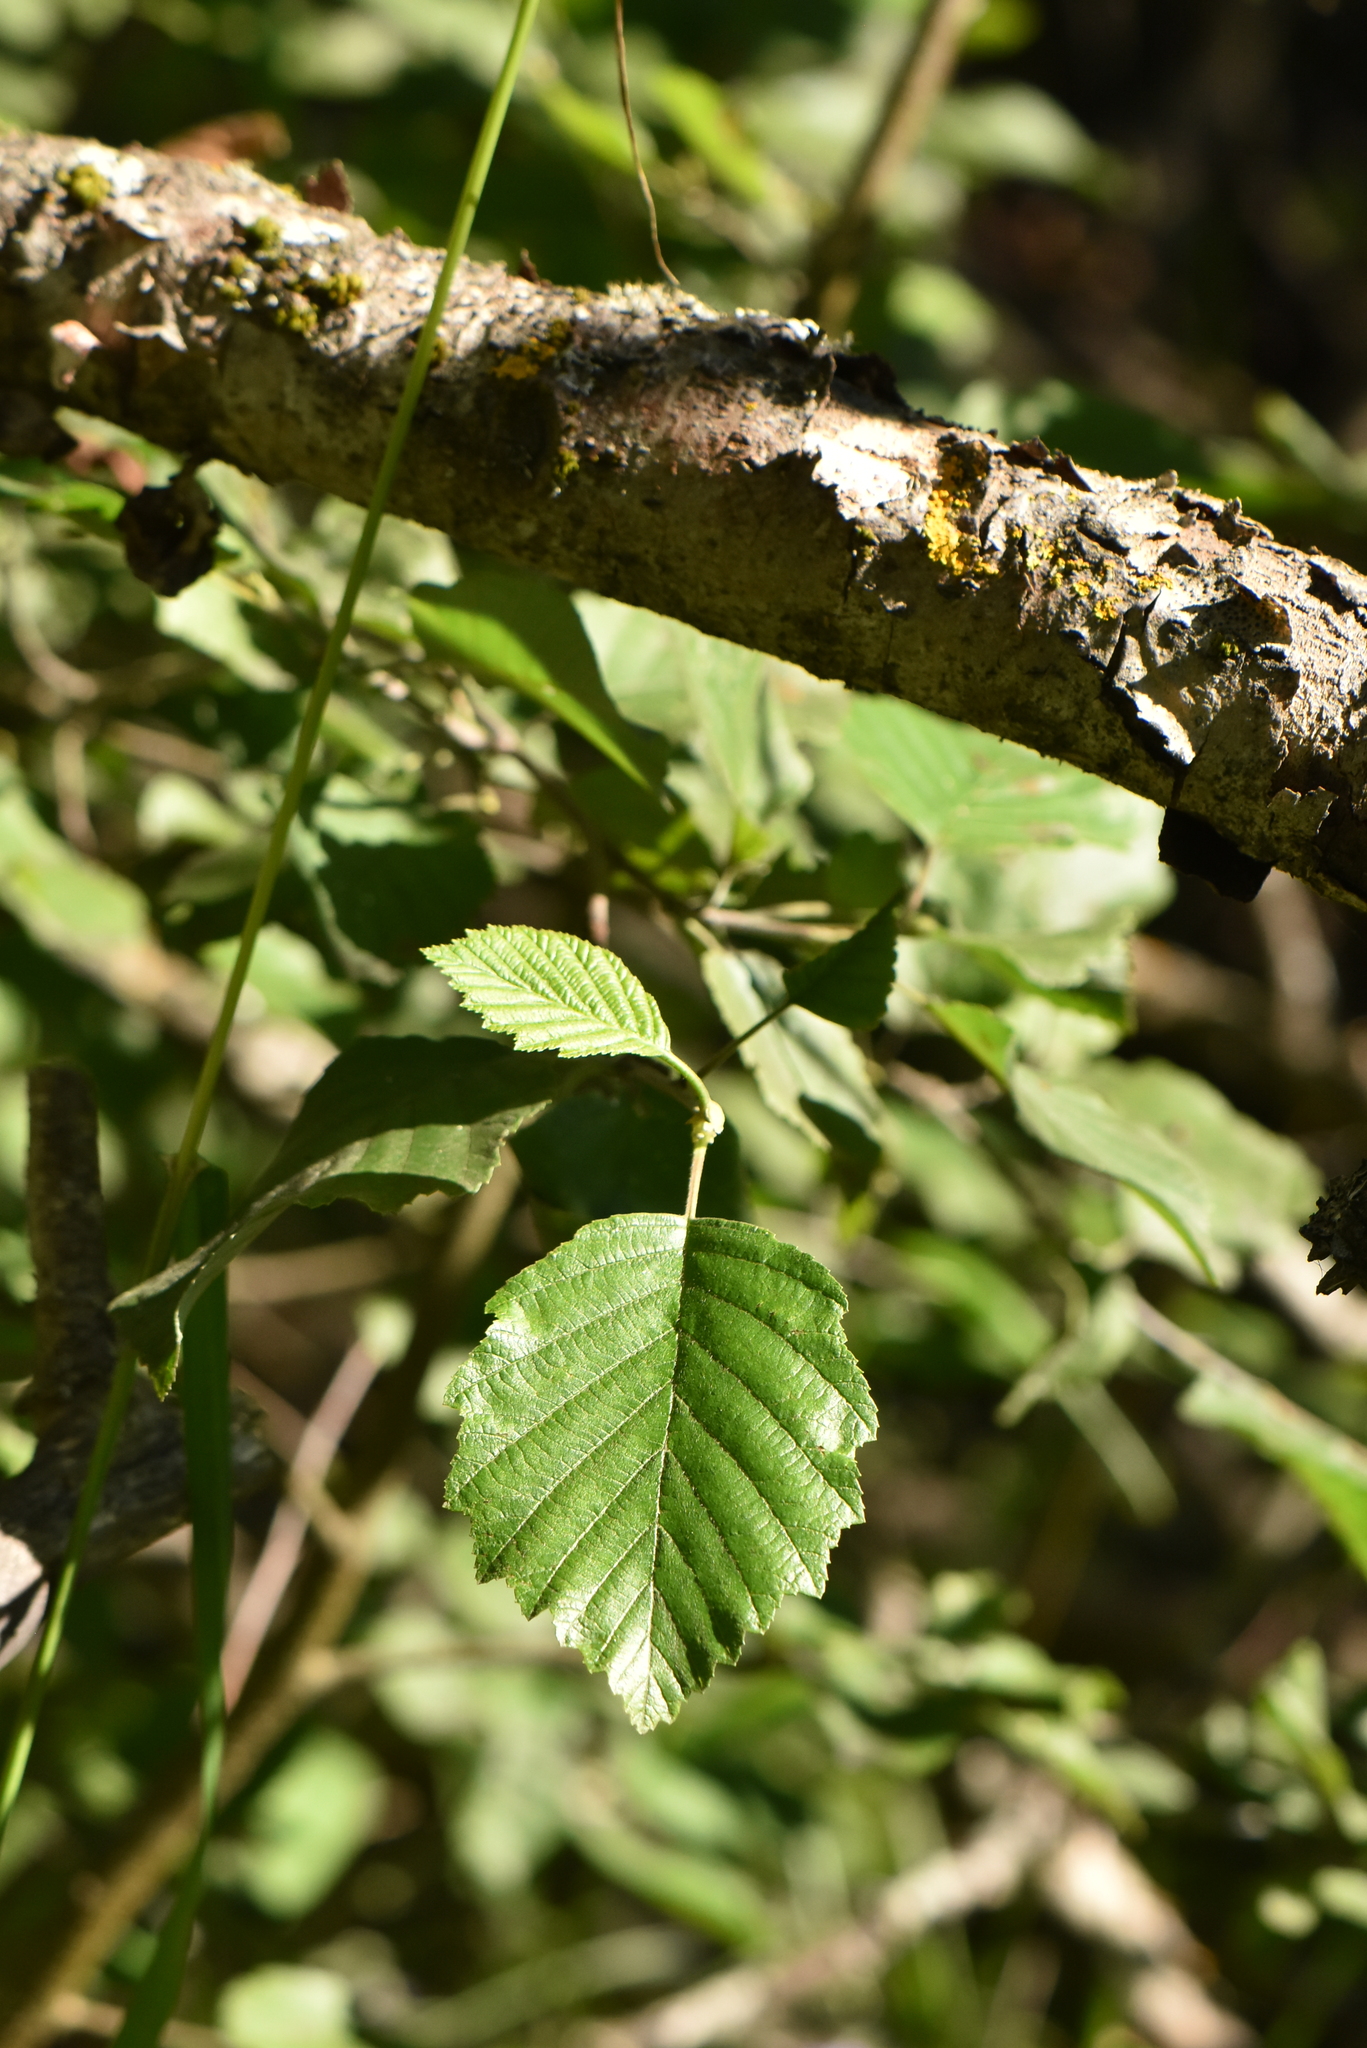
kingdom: Plantae
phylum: Tracheophyta
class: Magnoliopsida
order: Fagales
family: Betulaceae
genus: Alnus
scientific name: Alnus incana
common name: Grey alder
